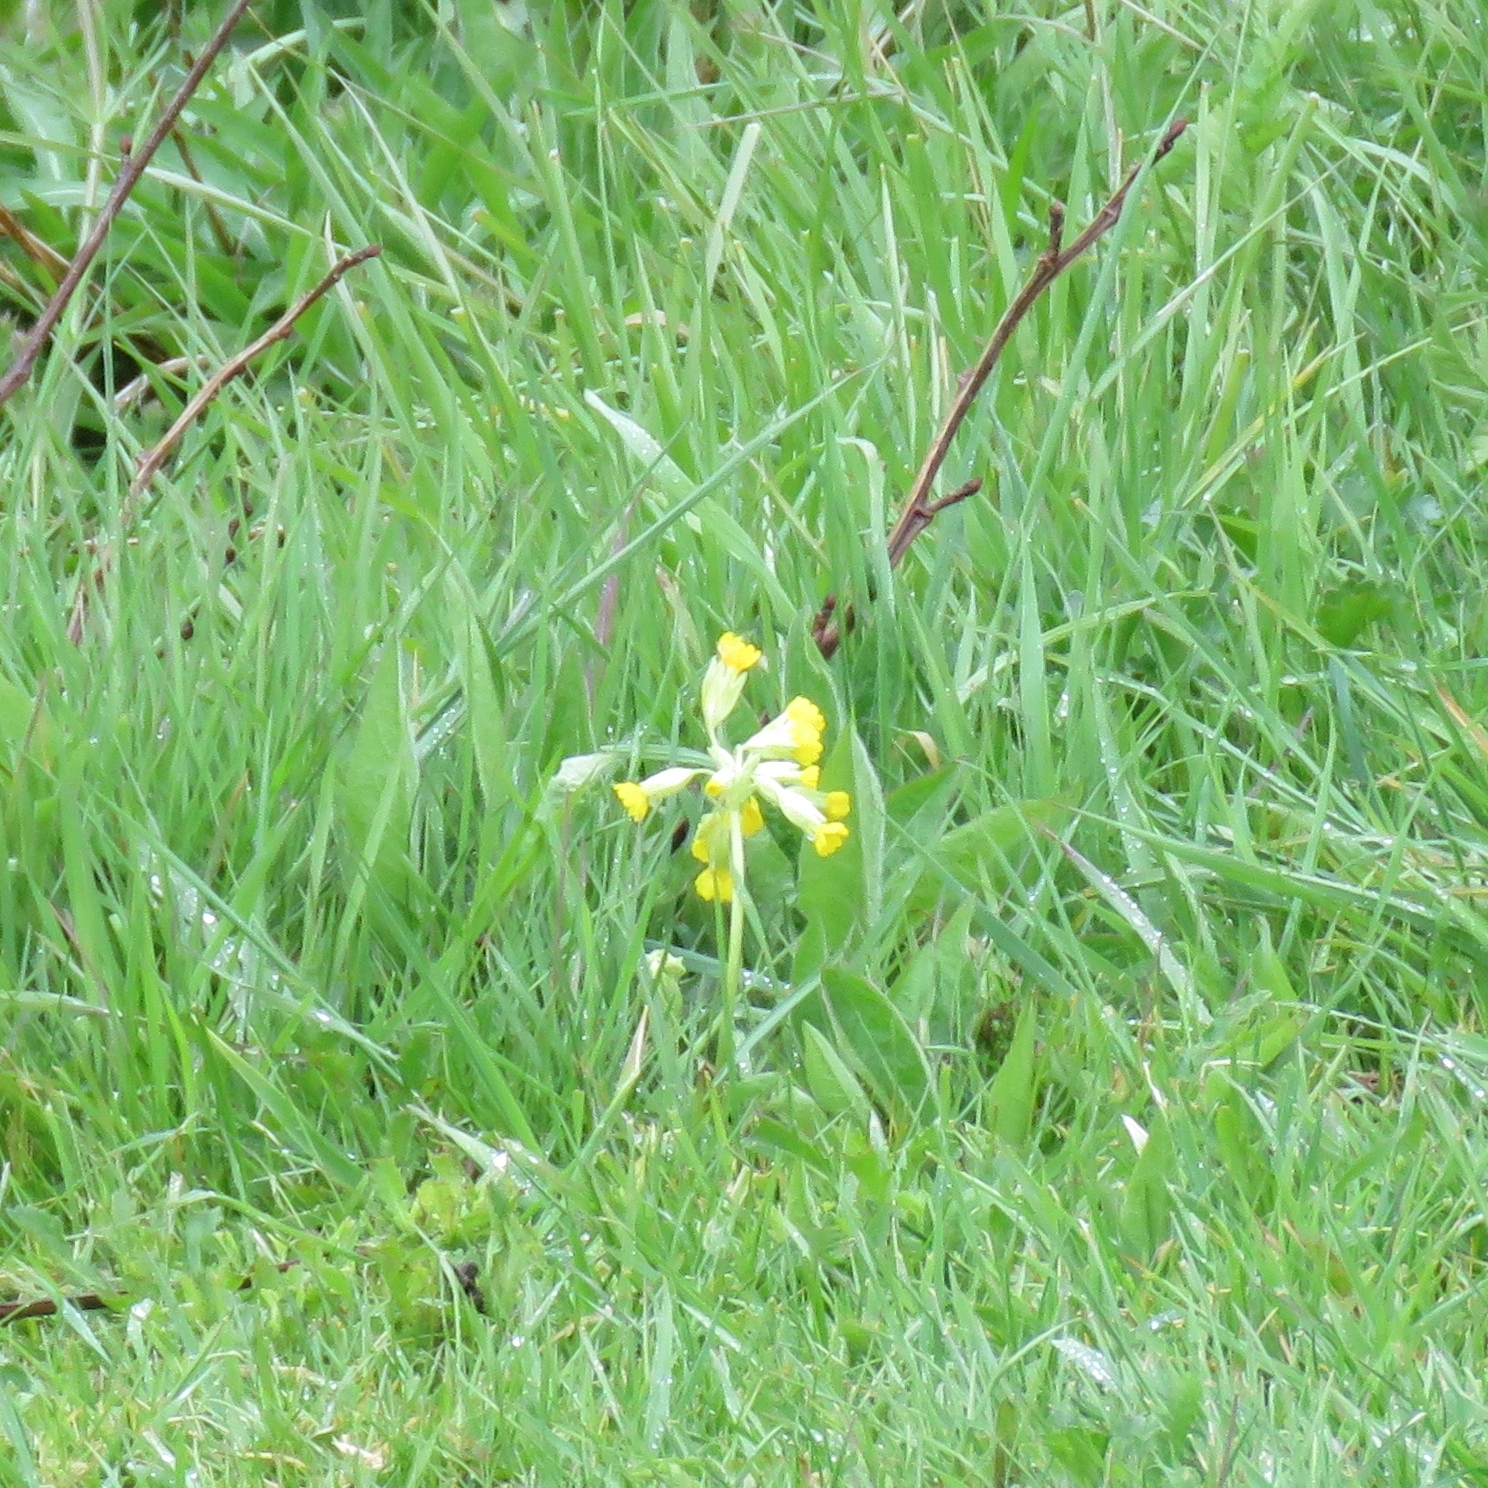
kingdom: Plantae
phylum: Tracheophyta
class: Magnoliopsida
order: Ericales
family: Primulaceae
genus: Primula
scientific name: Primula veris
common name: Cowslip
